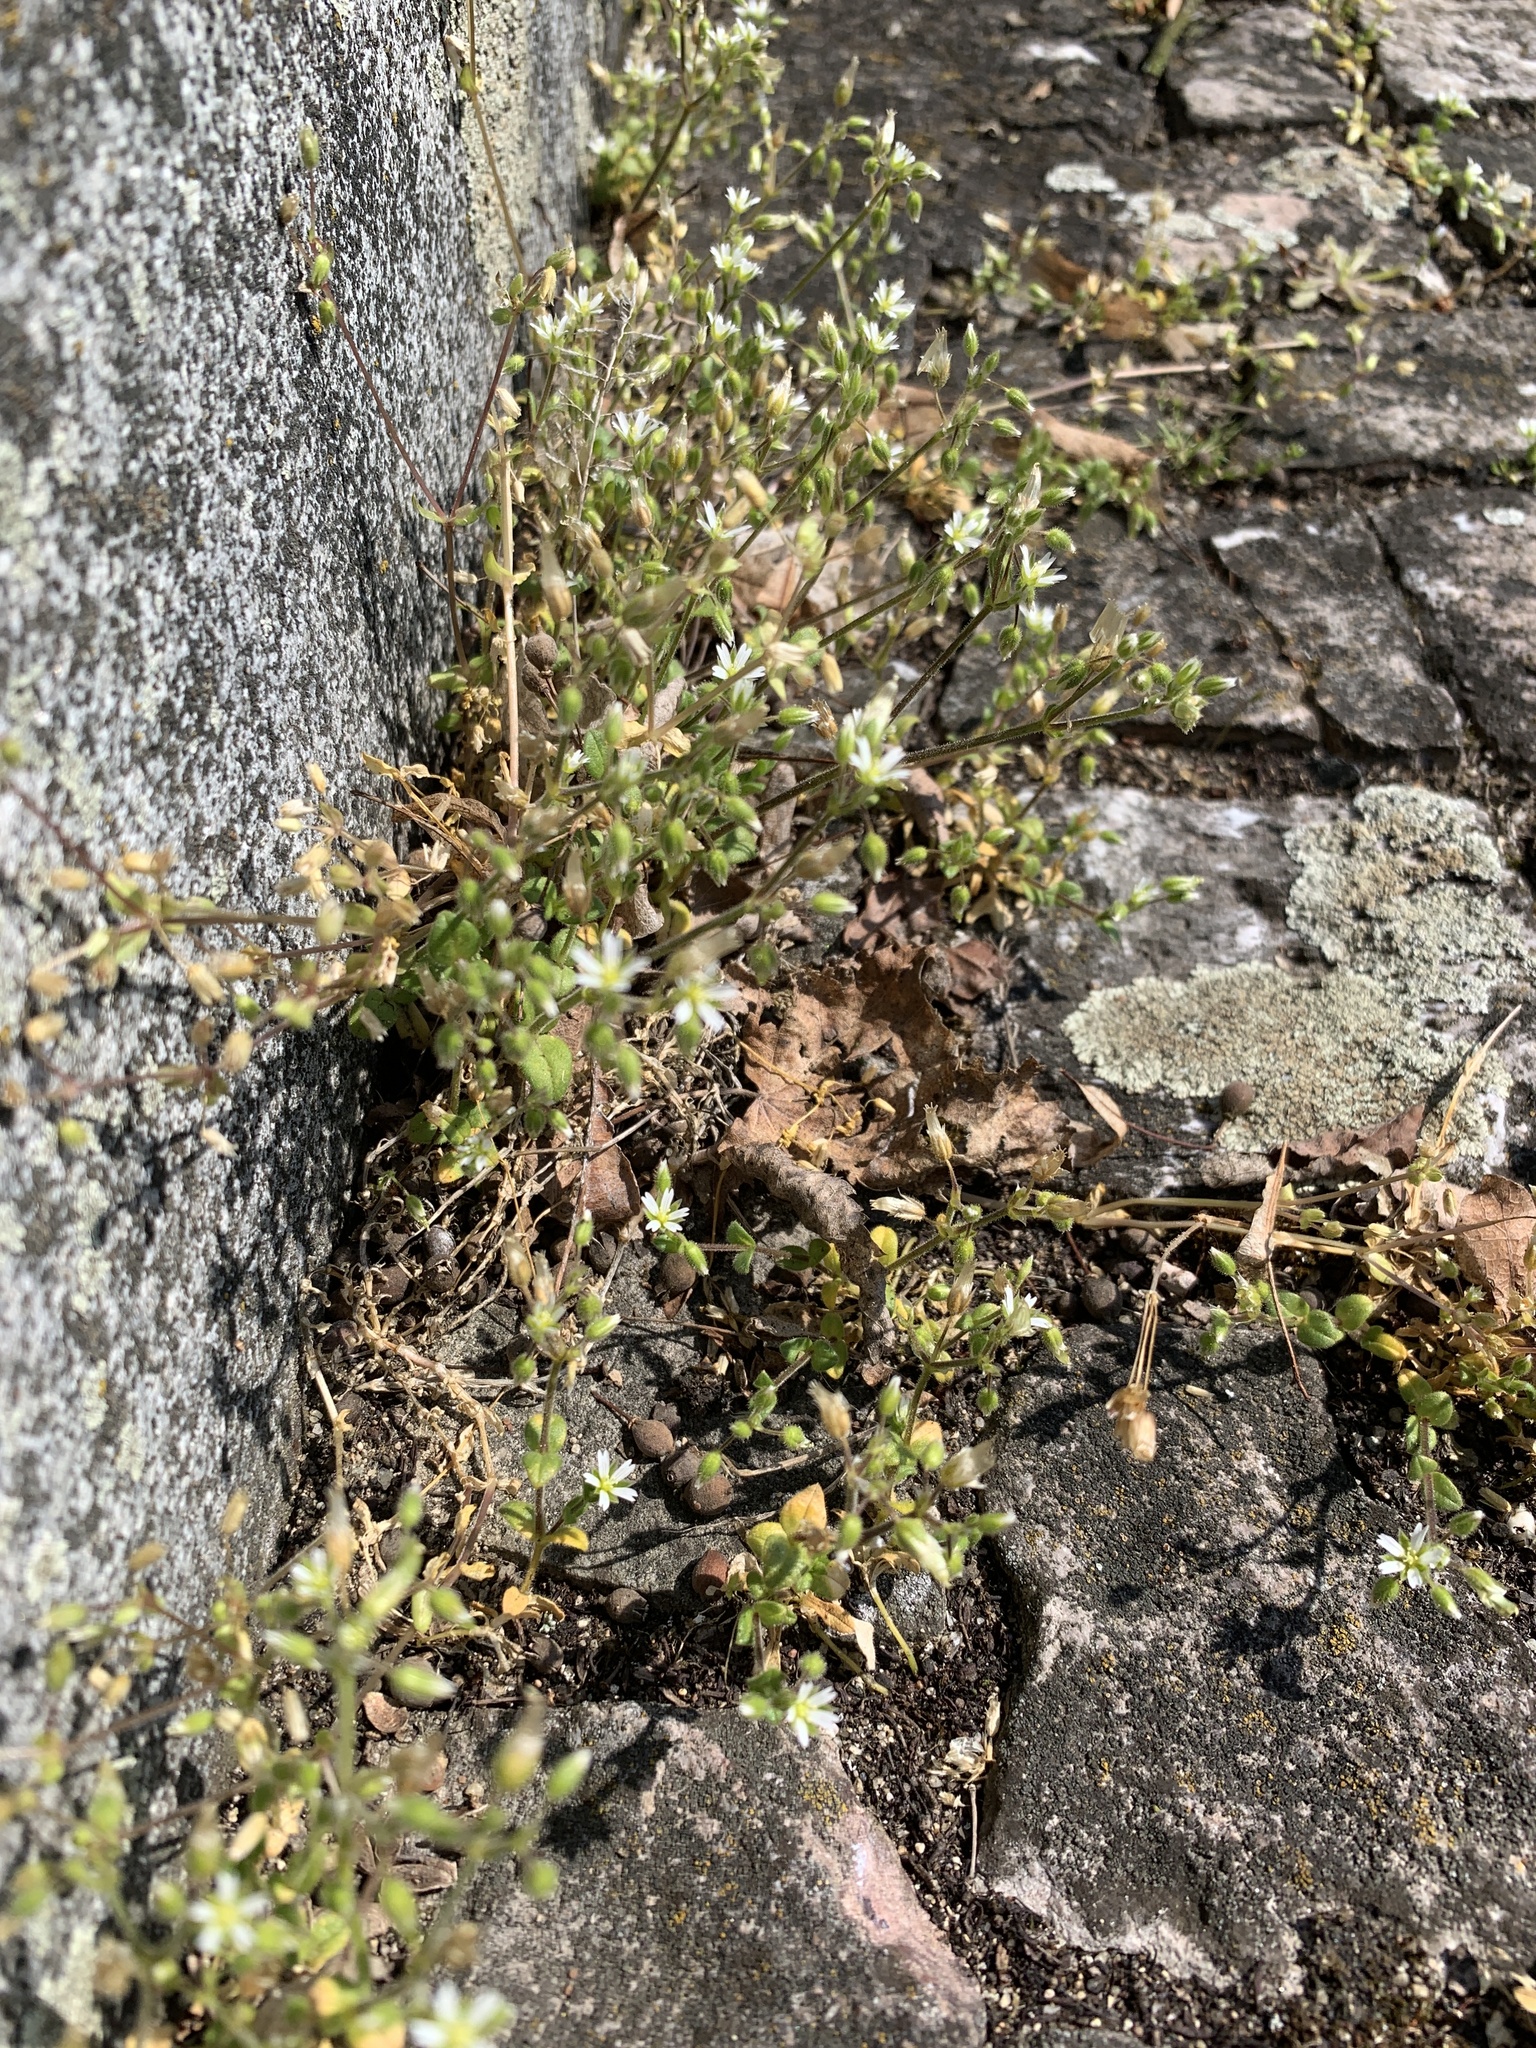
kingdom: Plantae
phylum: Tracheophyta
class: Magnoliopsida
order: Caryophyllales
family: Caryophyllaceae
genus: Cerastium
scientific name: Cerastium semidecandrum
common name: Little mouse-ear
